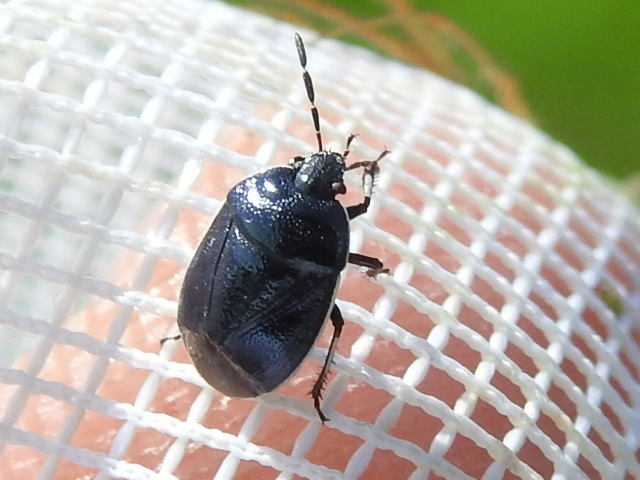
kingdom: Animalia
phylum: Arthropoda
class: Insecta
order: Hemiptera
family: Cydnidae
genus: Sehirus
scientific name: Sehirus cinctus
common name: White-margined burrower bug
